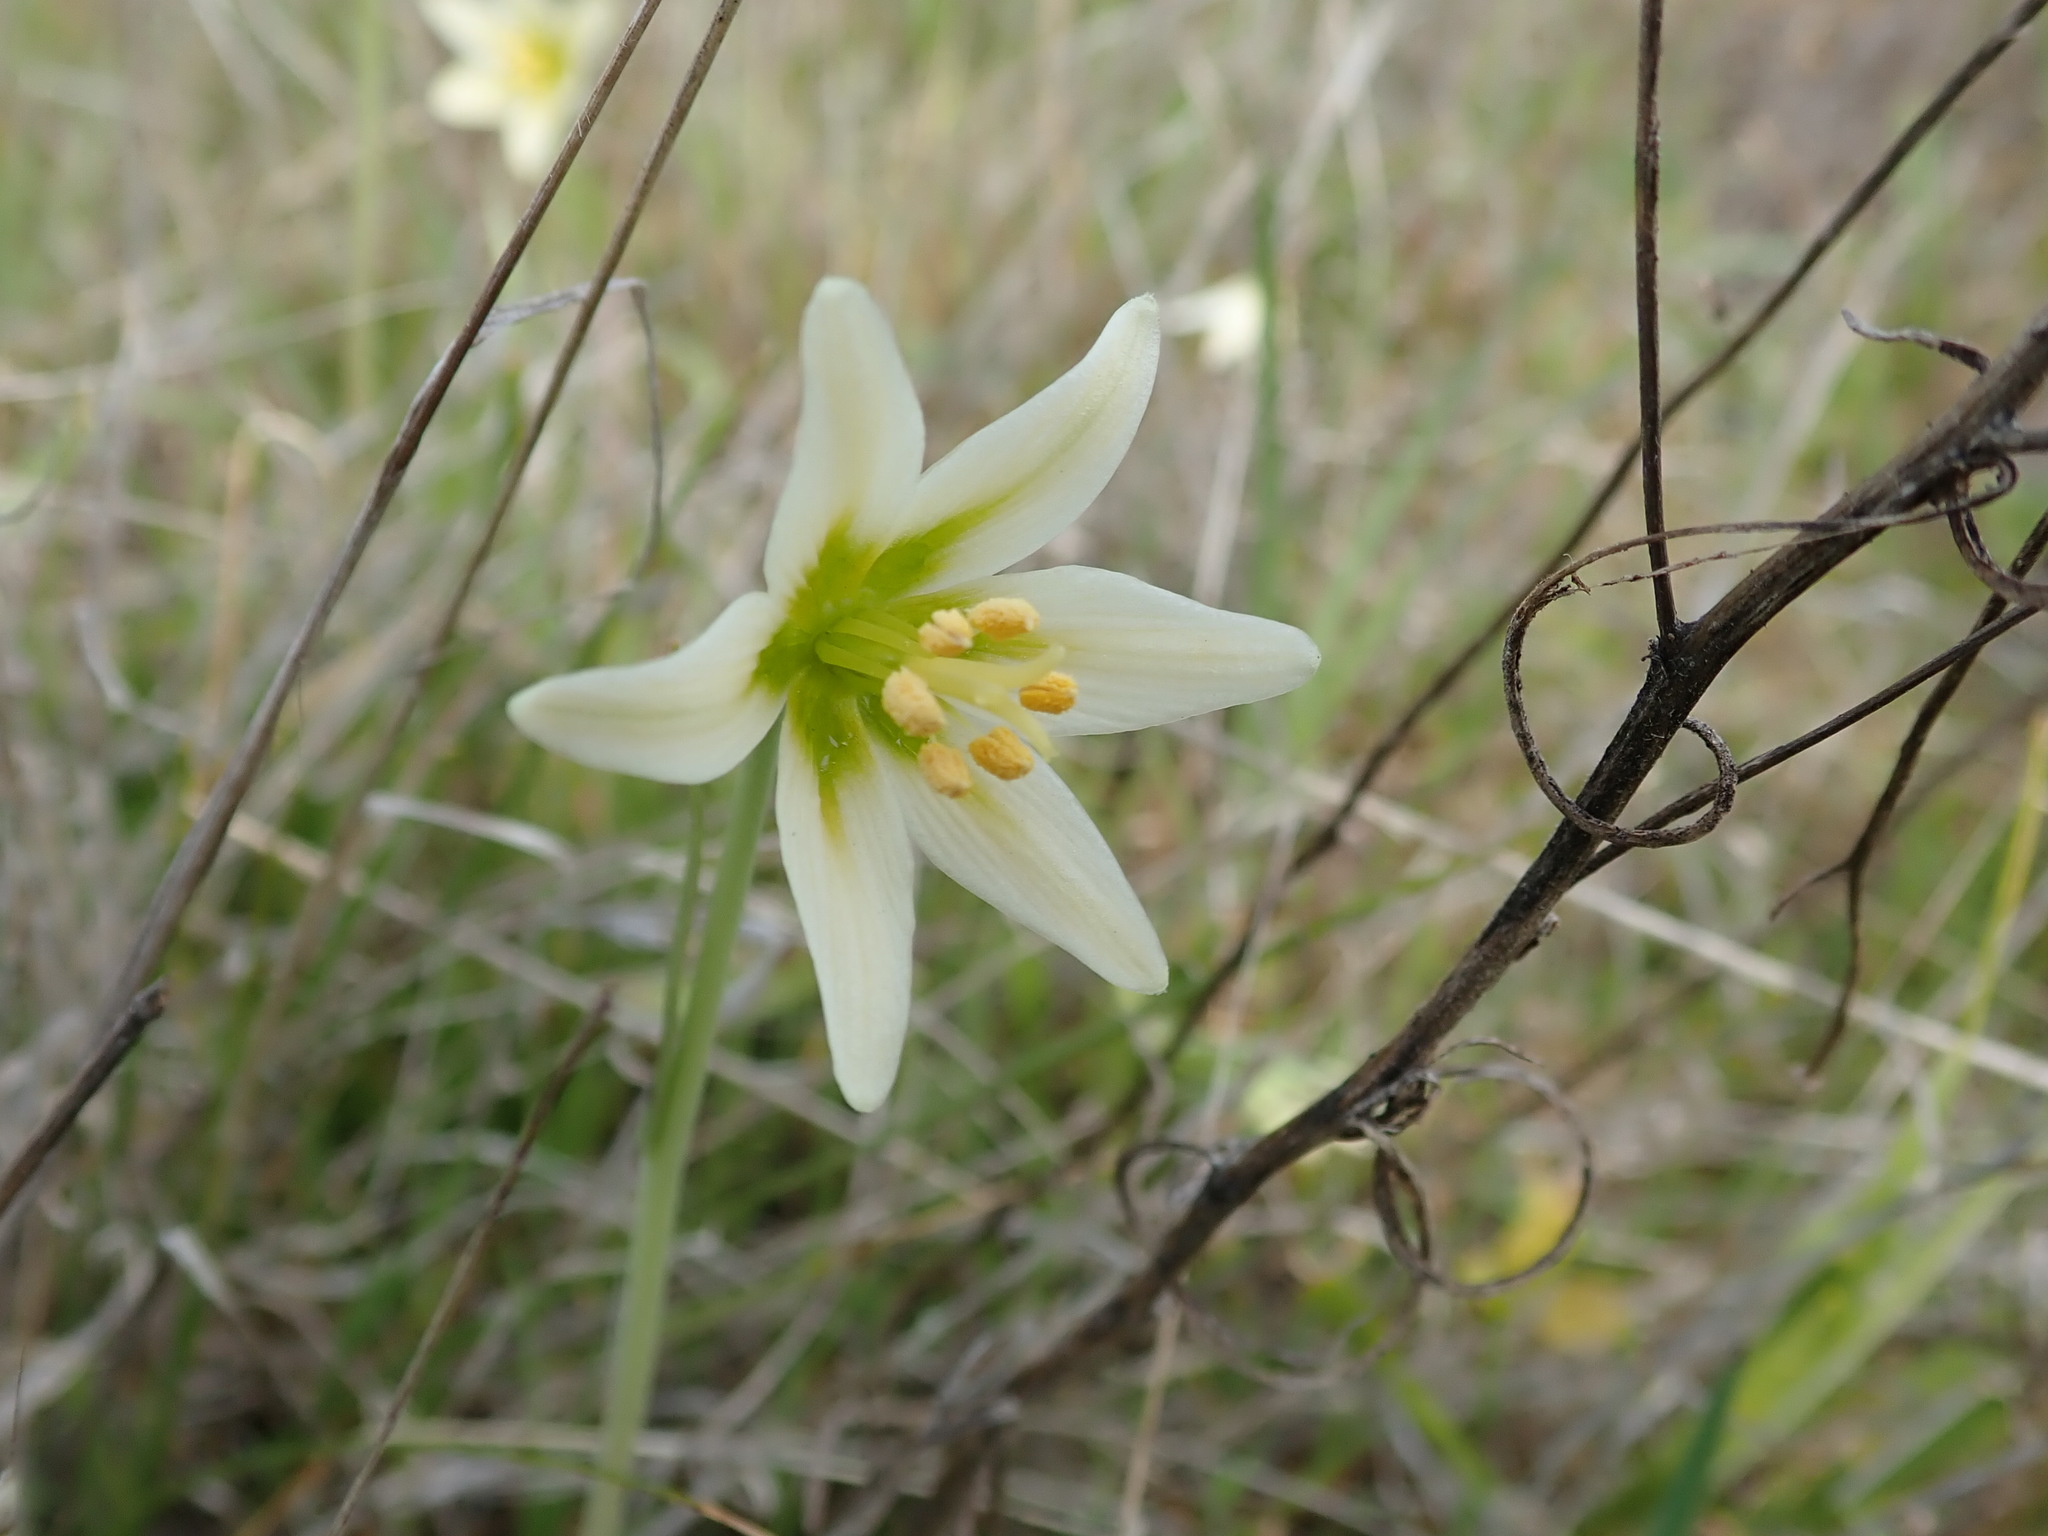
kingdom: Plantae
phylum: Tracheophyta
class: Liliopsida
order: Liliales
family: Liliaceae
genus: Fritillaria
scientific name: Fritillaria liliacea
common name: Fragrant fritillary
